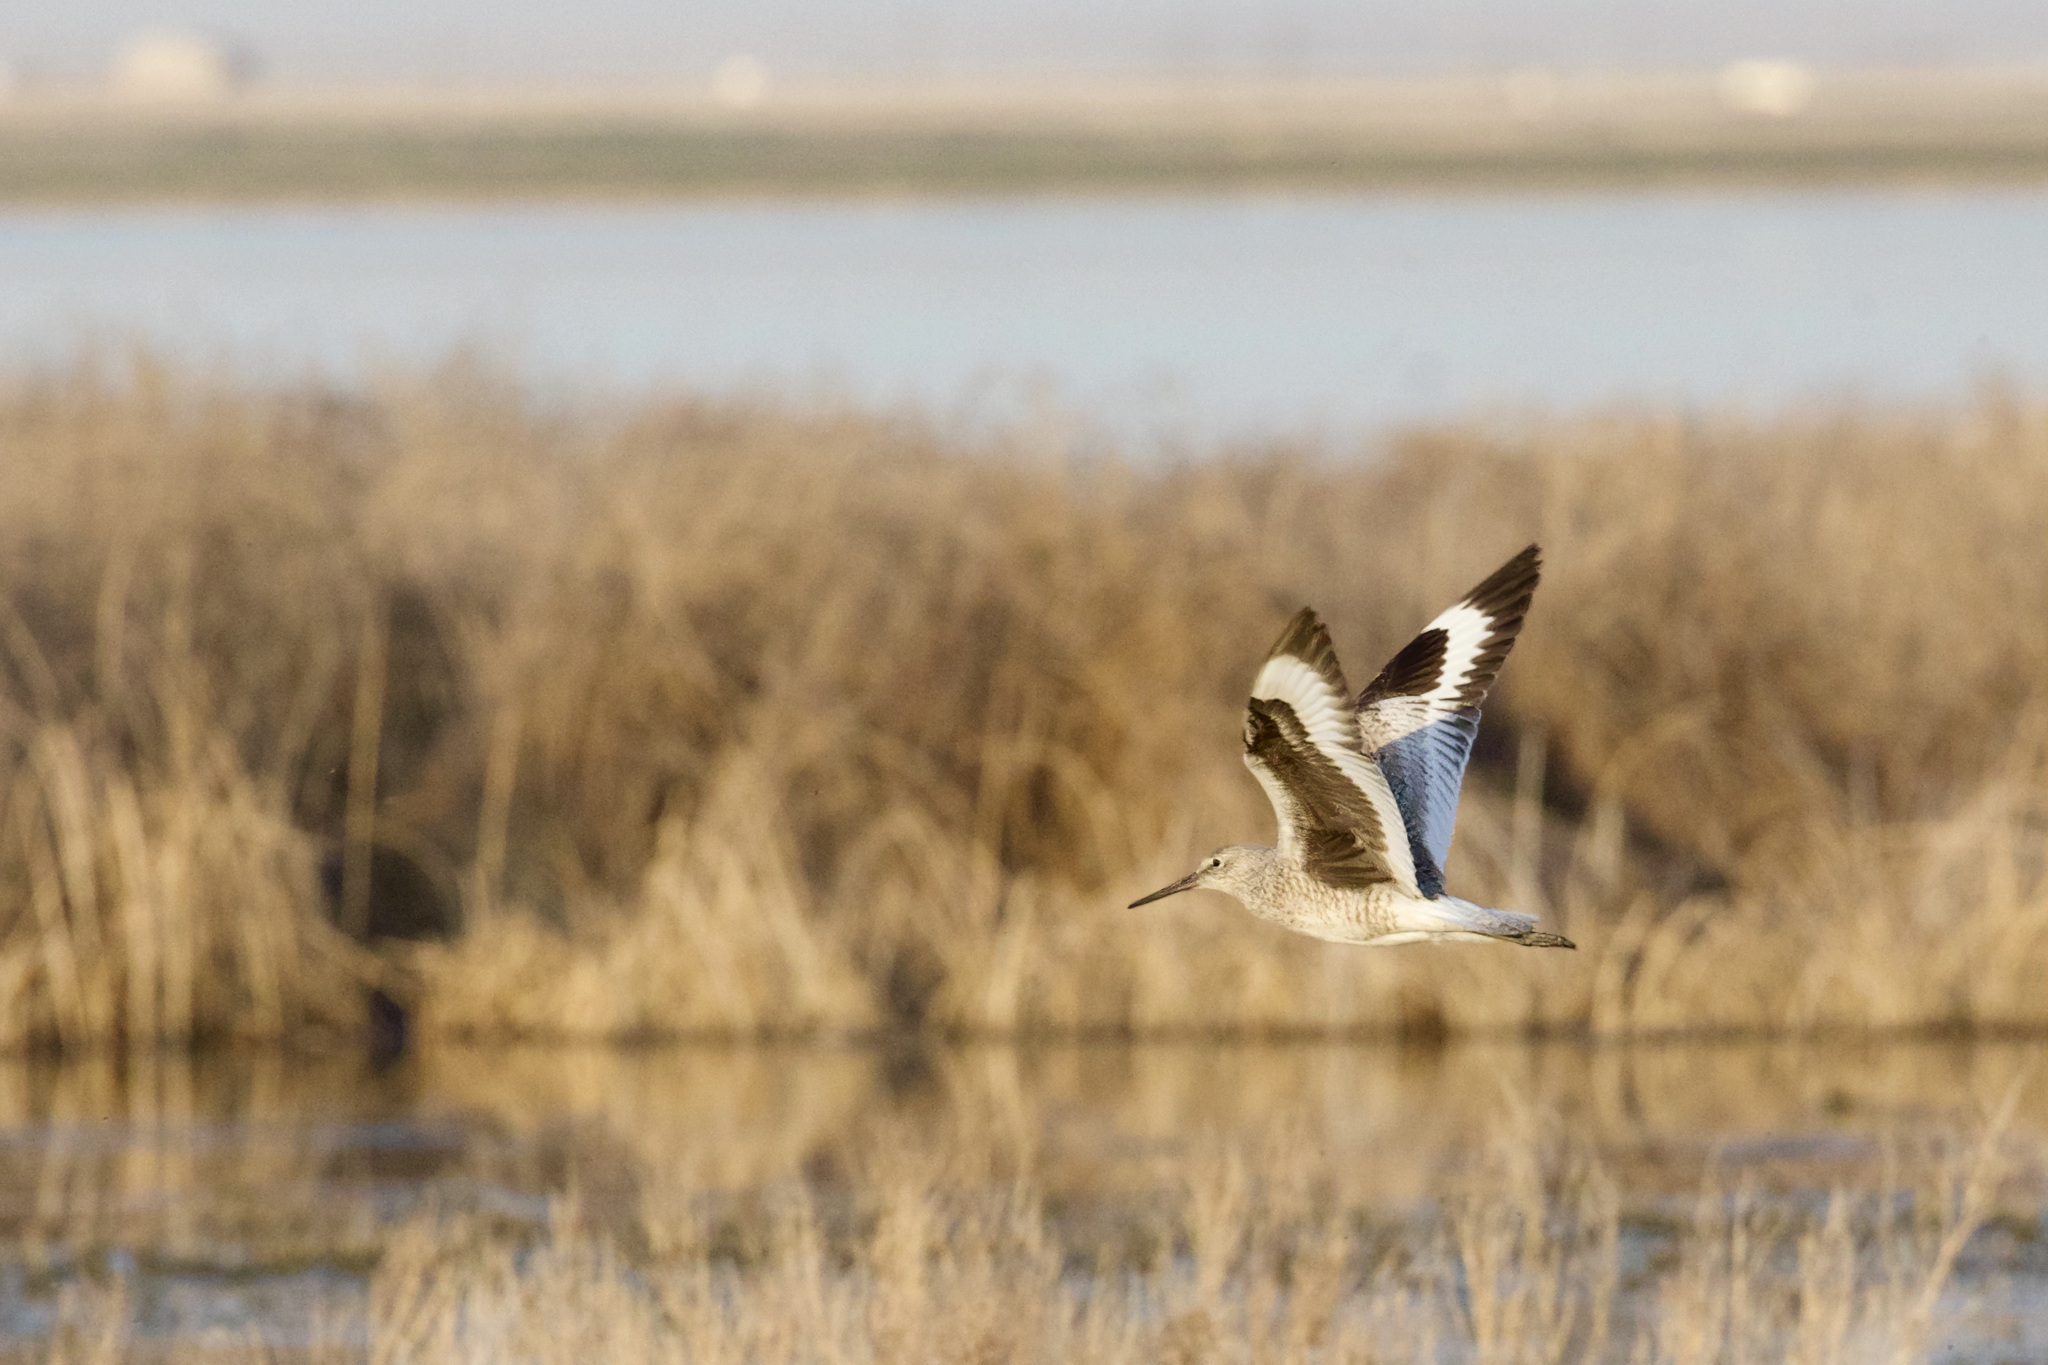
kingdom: Animalia
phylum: Chordata
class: Aves
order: Charadriiformes
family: Scolopacidae
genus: Tringa
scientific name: Tringa semipalmata
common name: Willet
